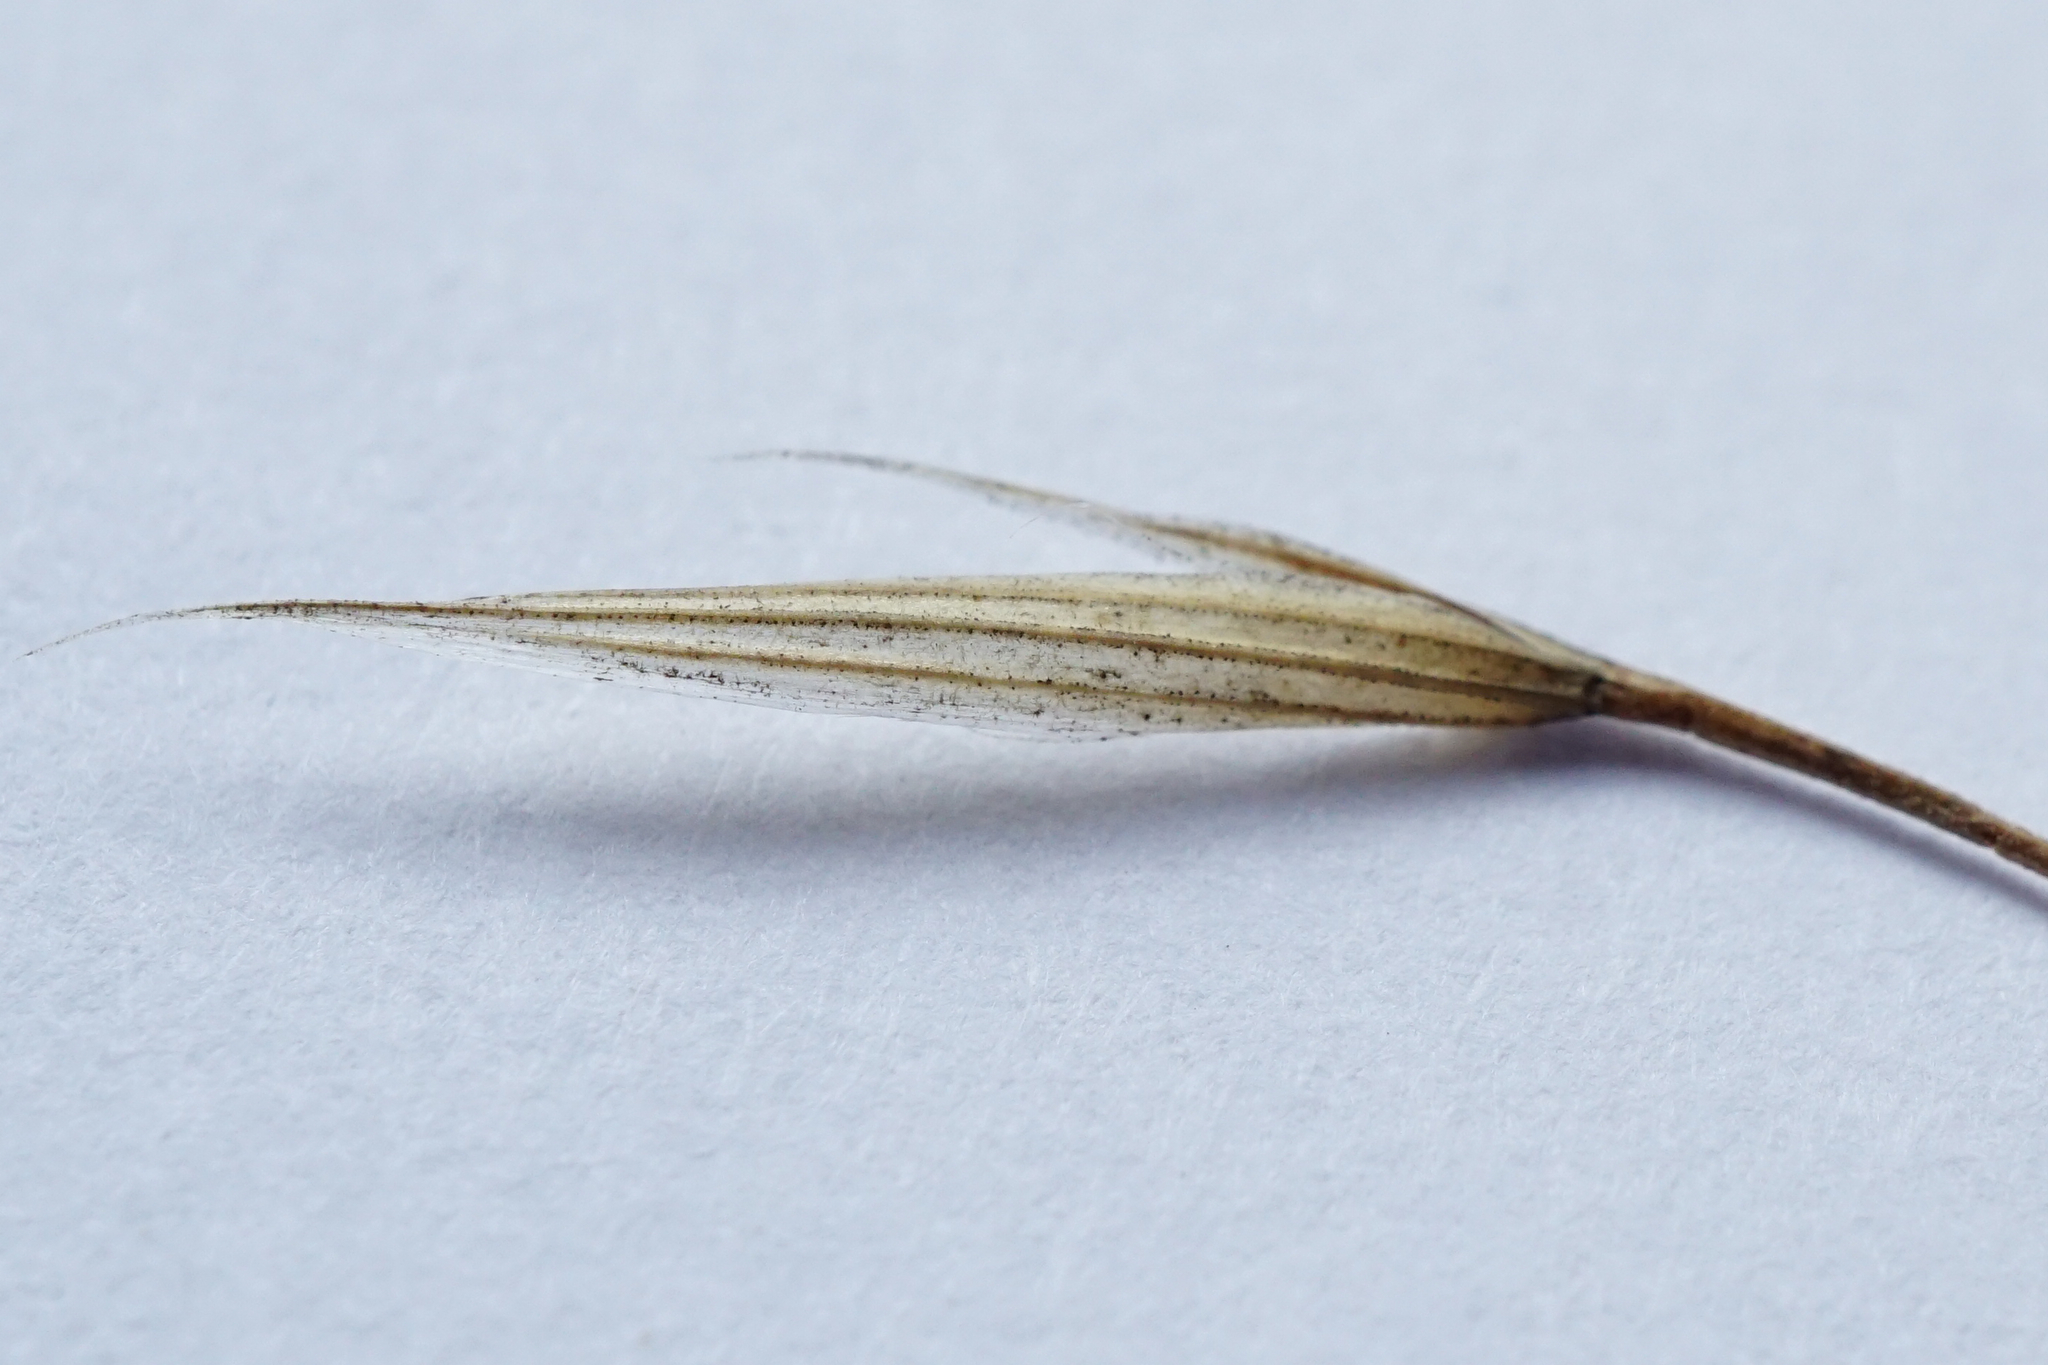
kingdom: Plantae
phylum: Tracheophyta
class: Liliopsida
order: Poales
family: Poaceae
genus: Bromus
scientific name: Bromus sterilis
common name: Poverty brome
